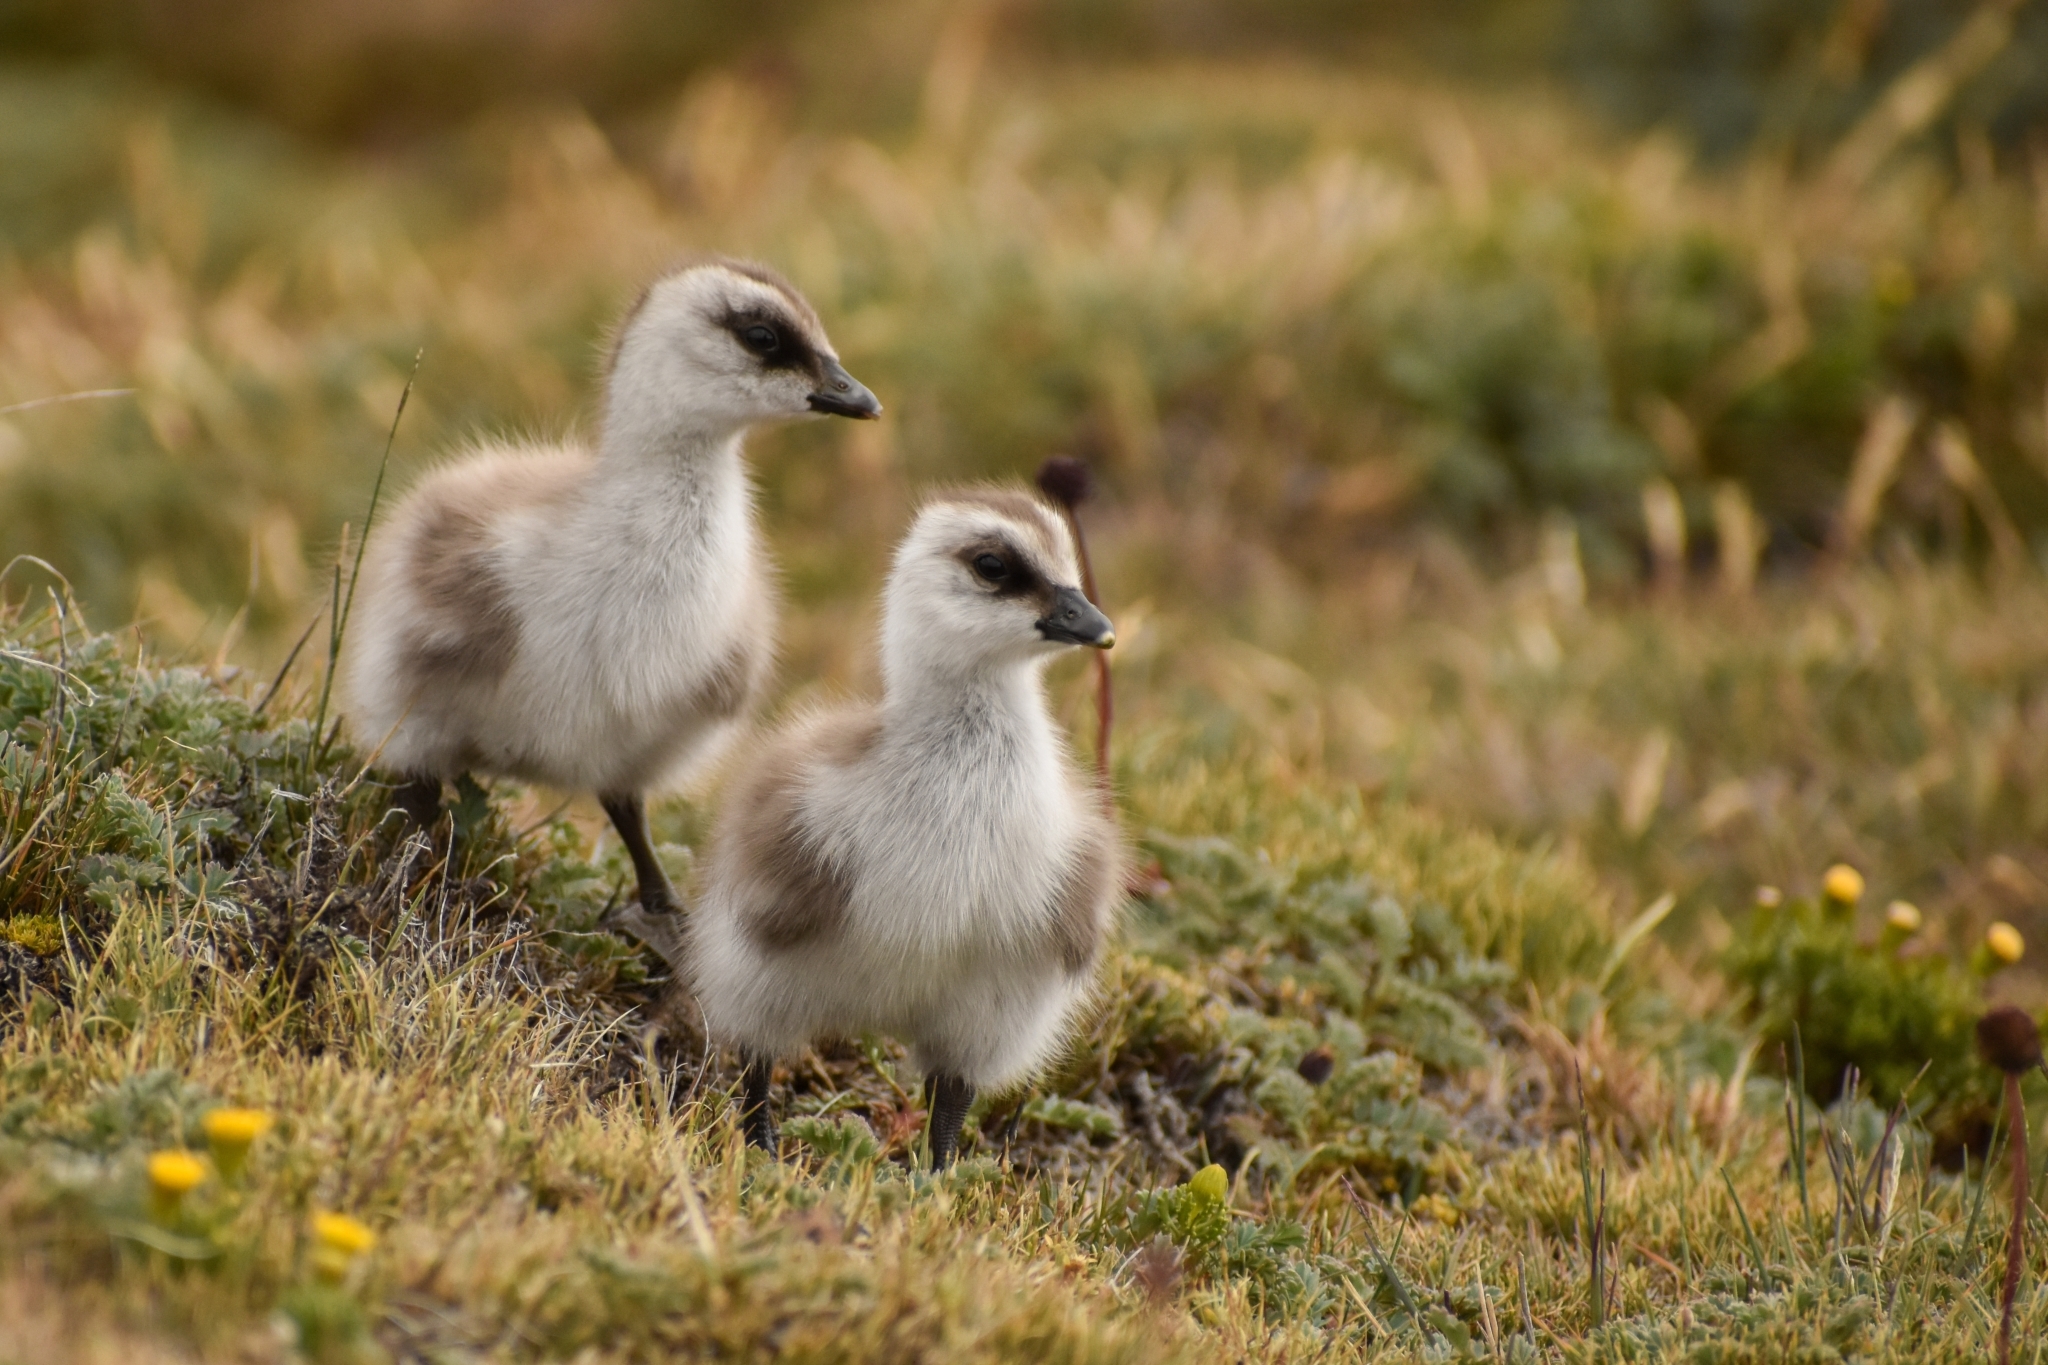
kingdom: Animalia
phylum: Chordata
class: Aves
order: Anseriformes
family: Anatidae
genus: Chloephaga
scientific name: Chloephaga picta
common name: Upland goose
